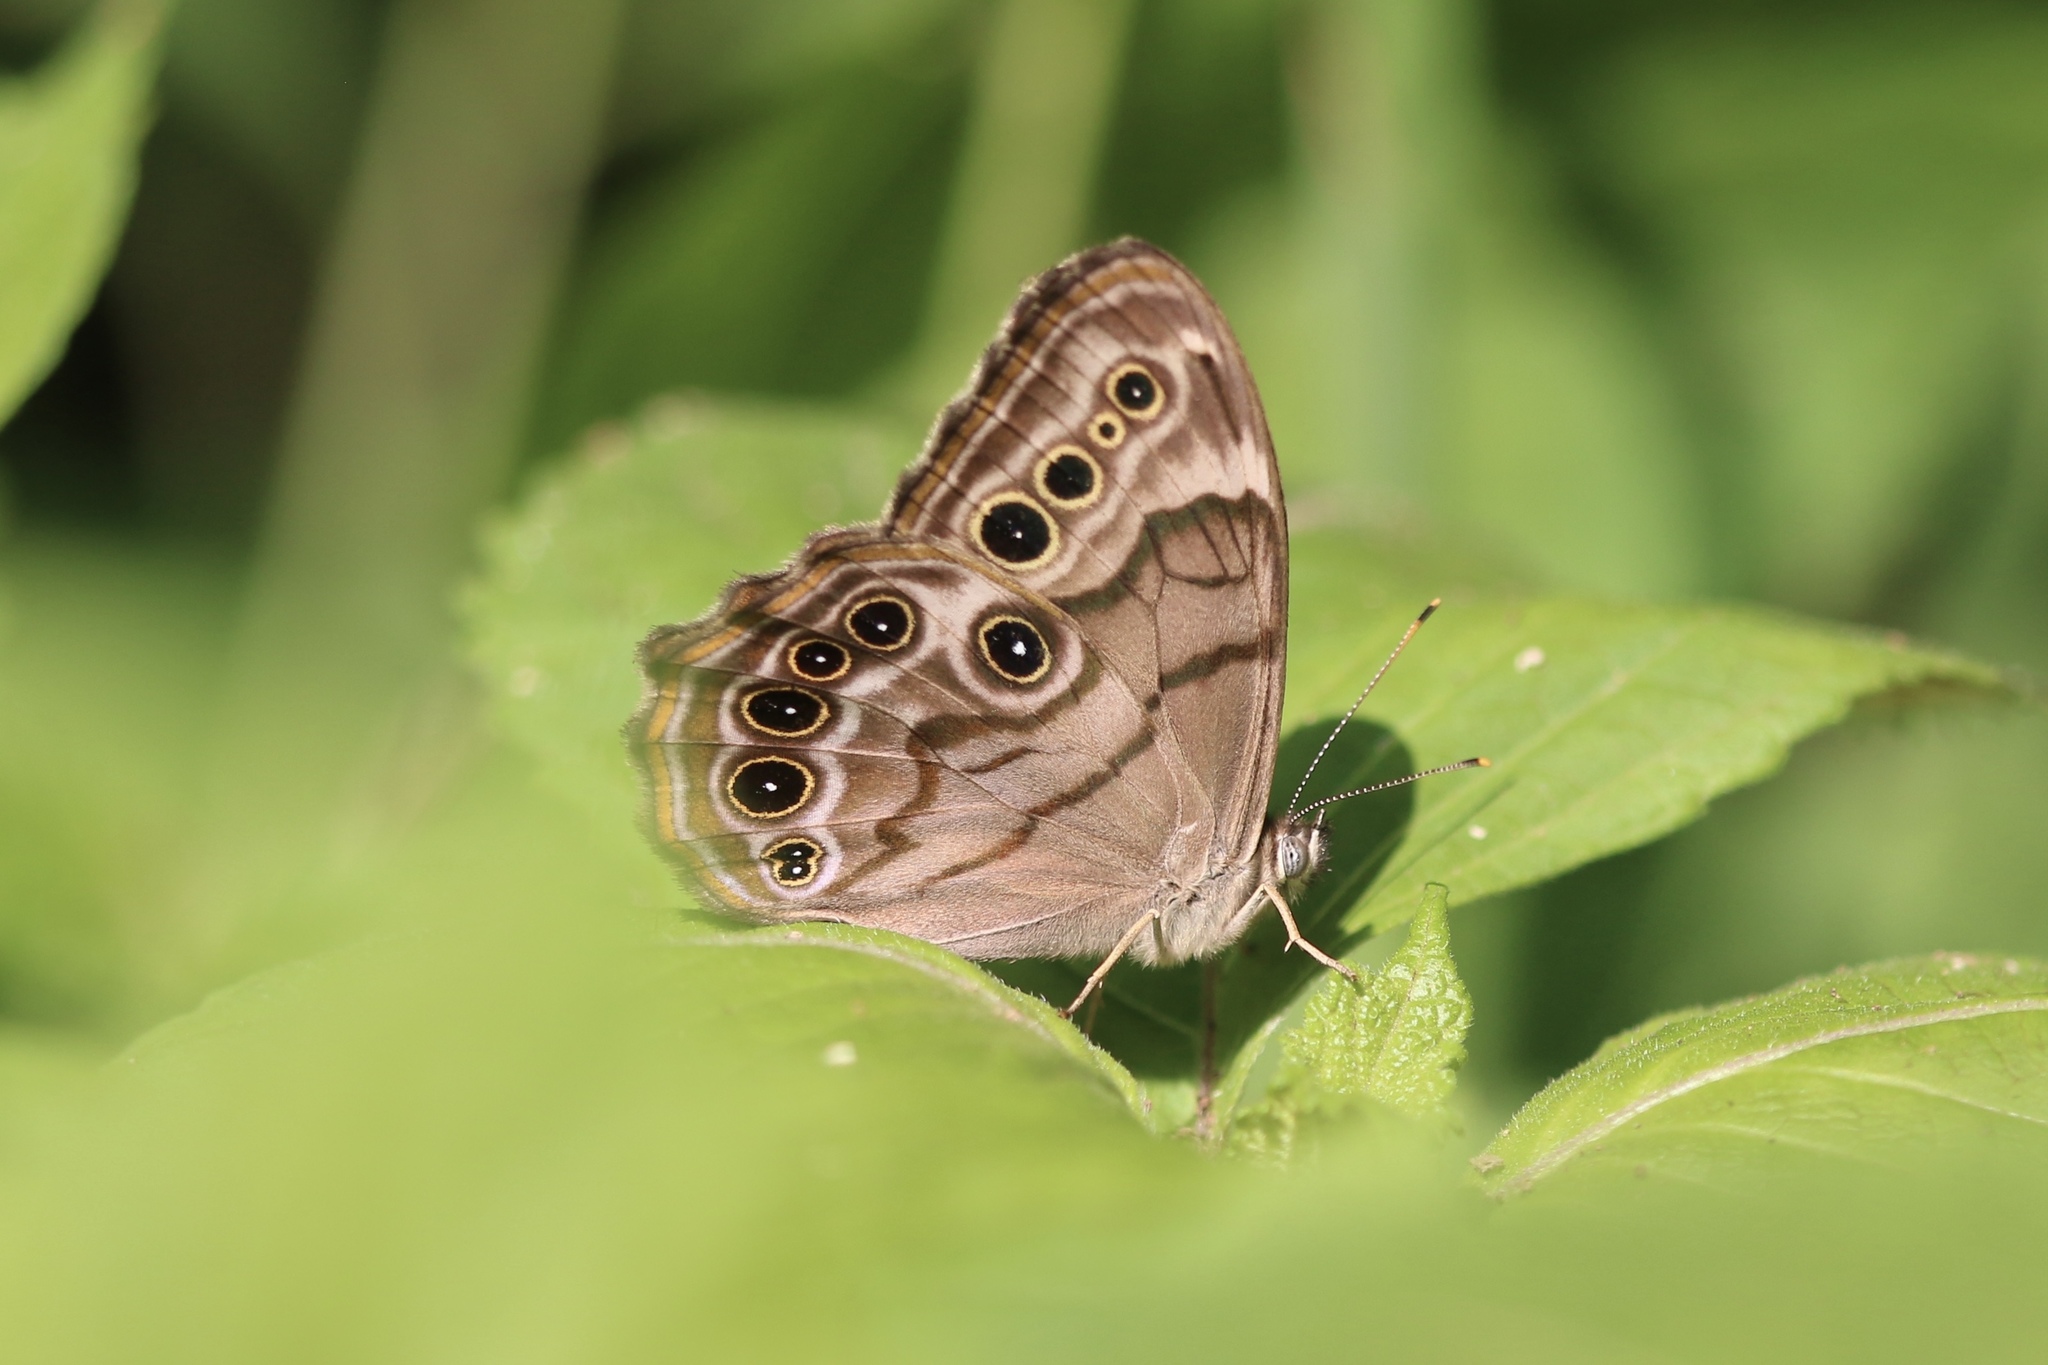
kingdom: Animalia
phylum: Arthropoda
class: Insecta
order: Lepidoptera
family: Nymphalidae
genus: Lethe
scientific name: Lethe anthedon
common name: Northern pearly-eye
